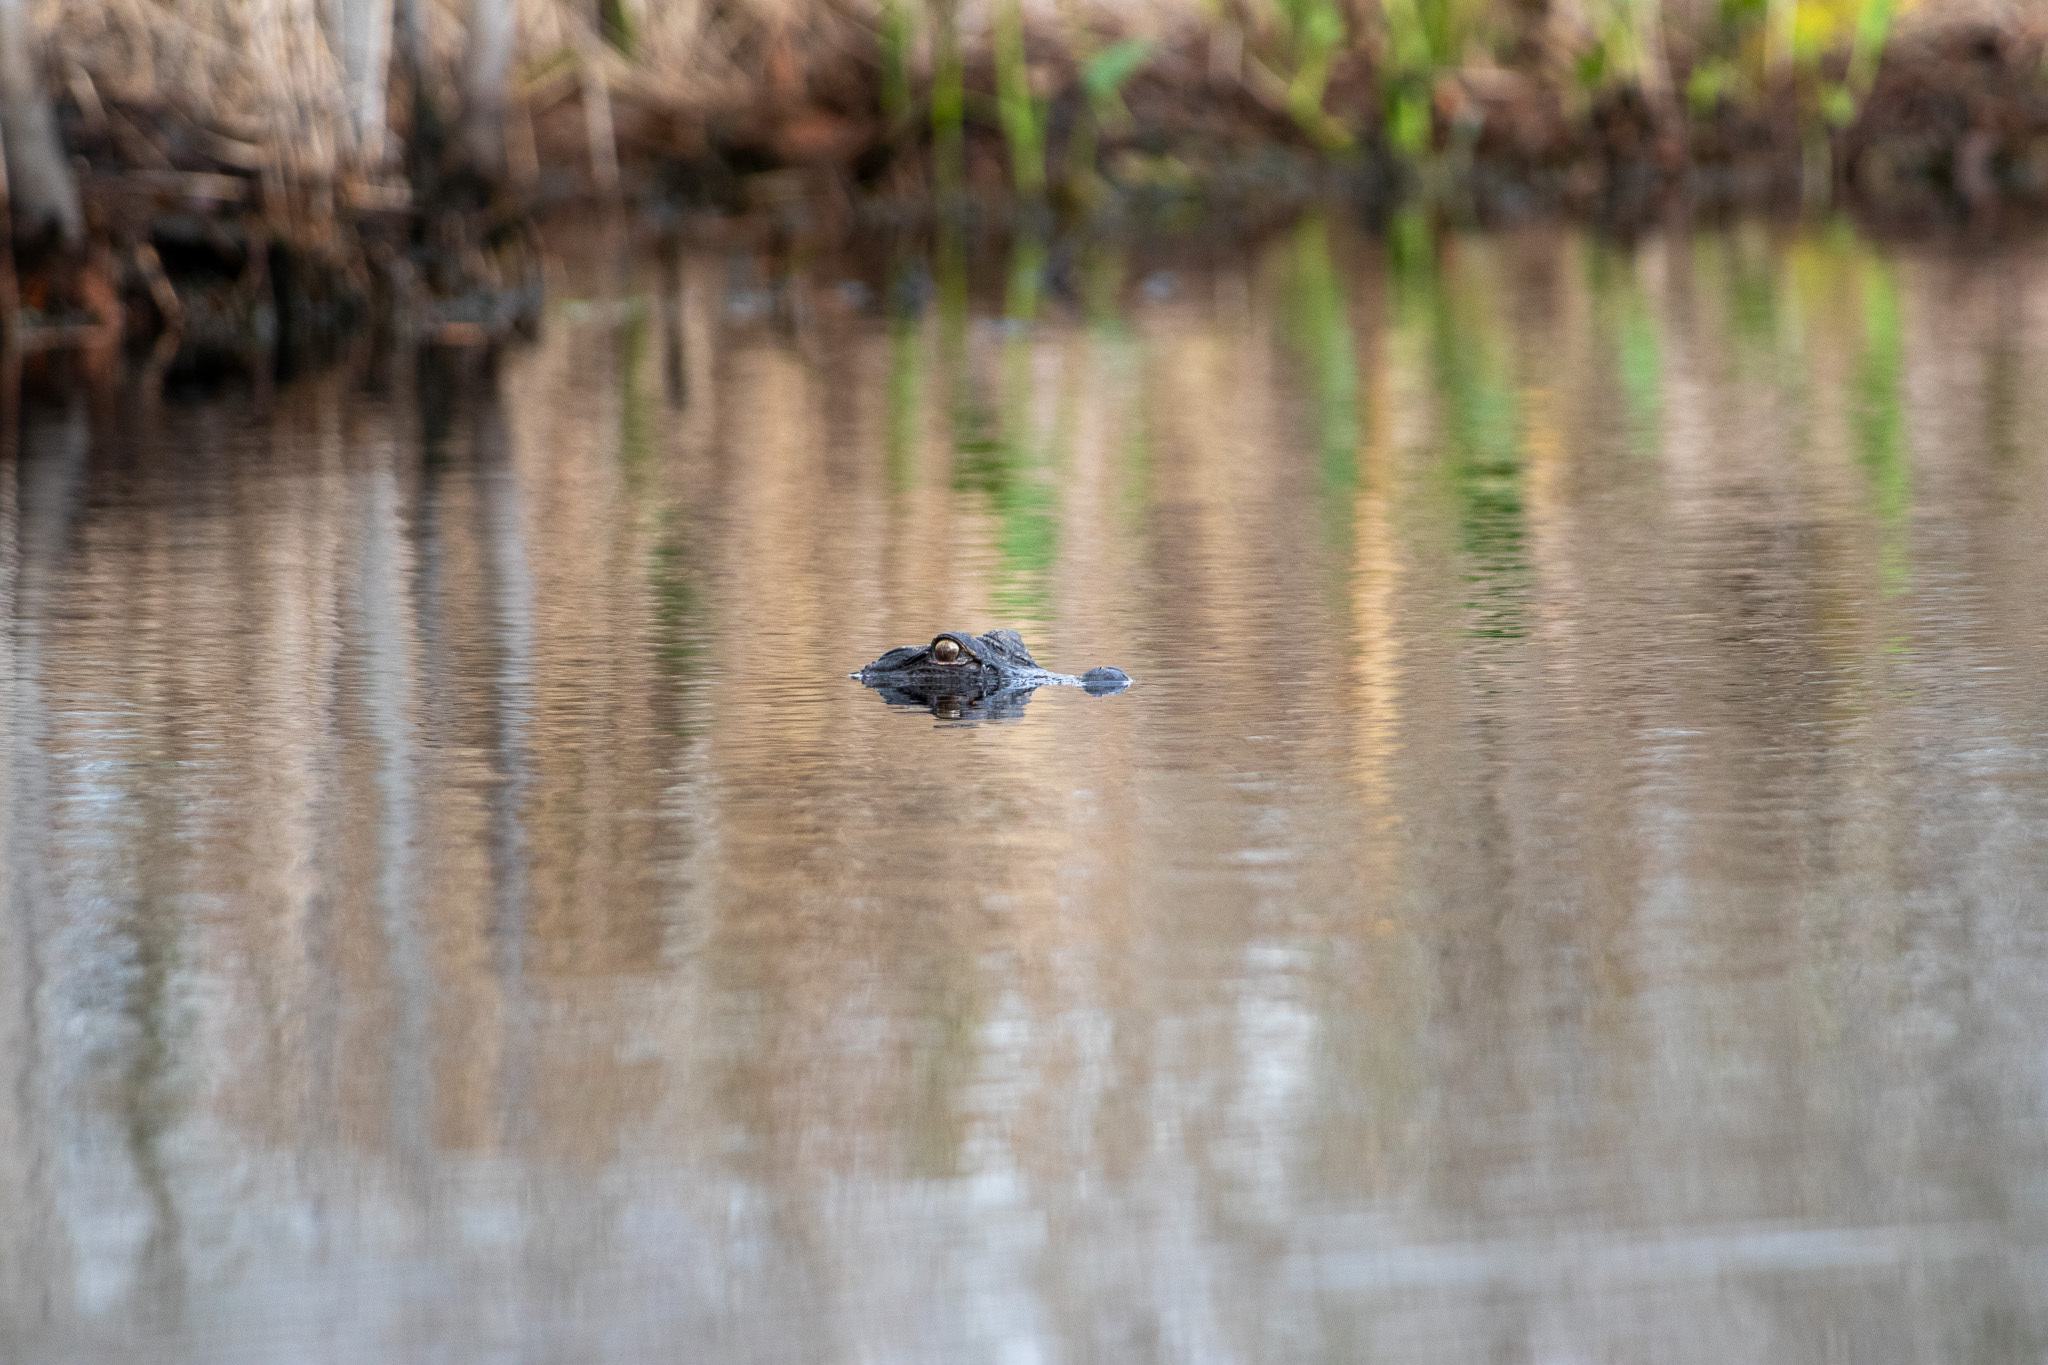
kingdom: Animalia
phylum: Chordata
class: Crocodylia
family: Alligatoridae
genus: Alligator
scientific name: Alligator mississippiensis
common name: American alligator
